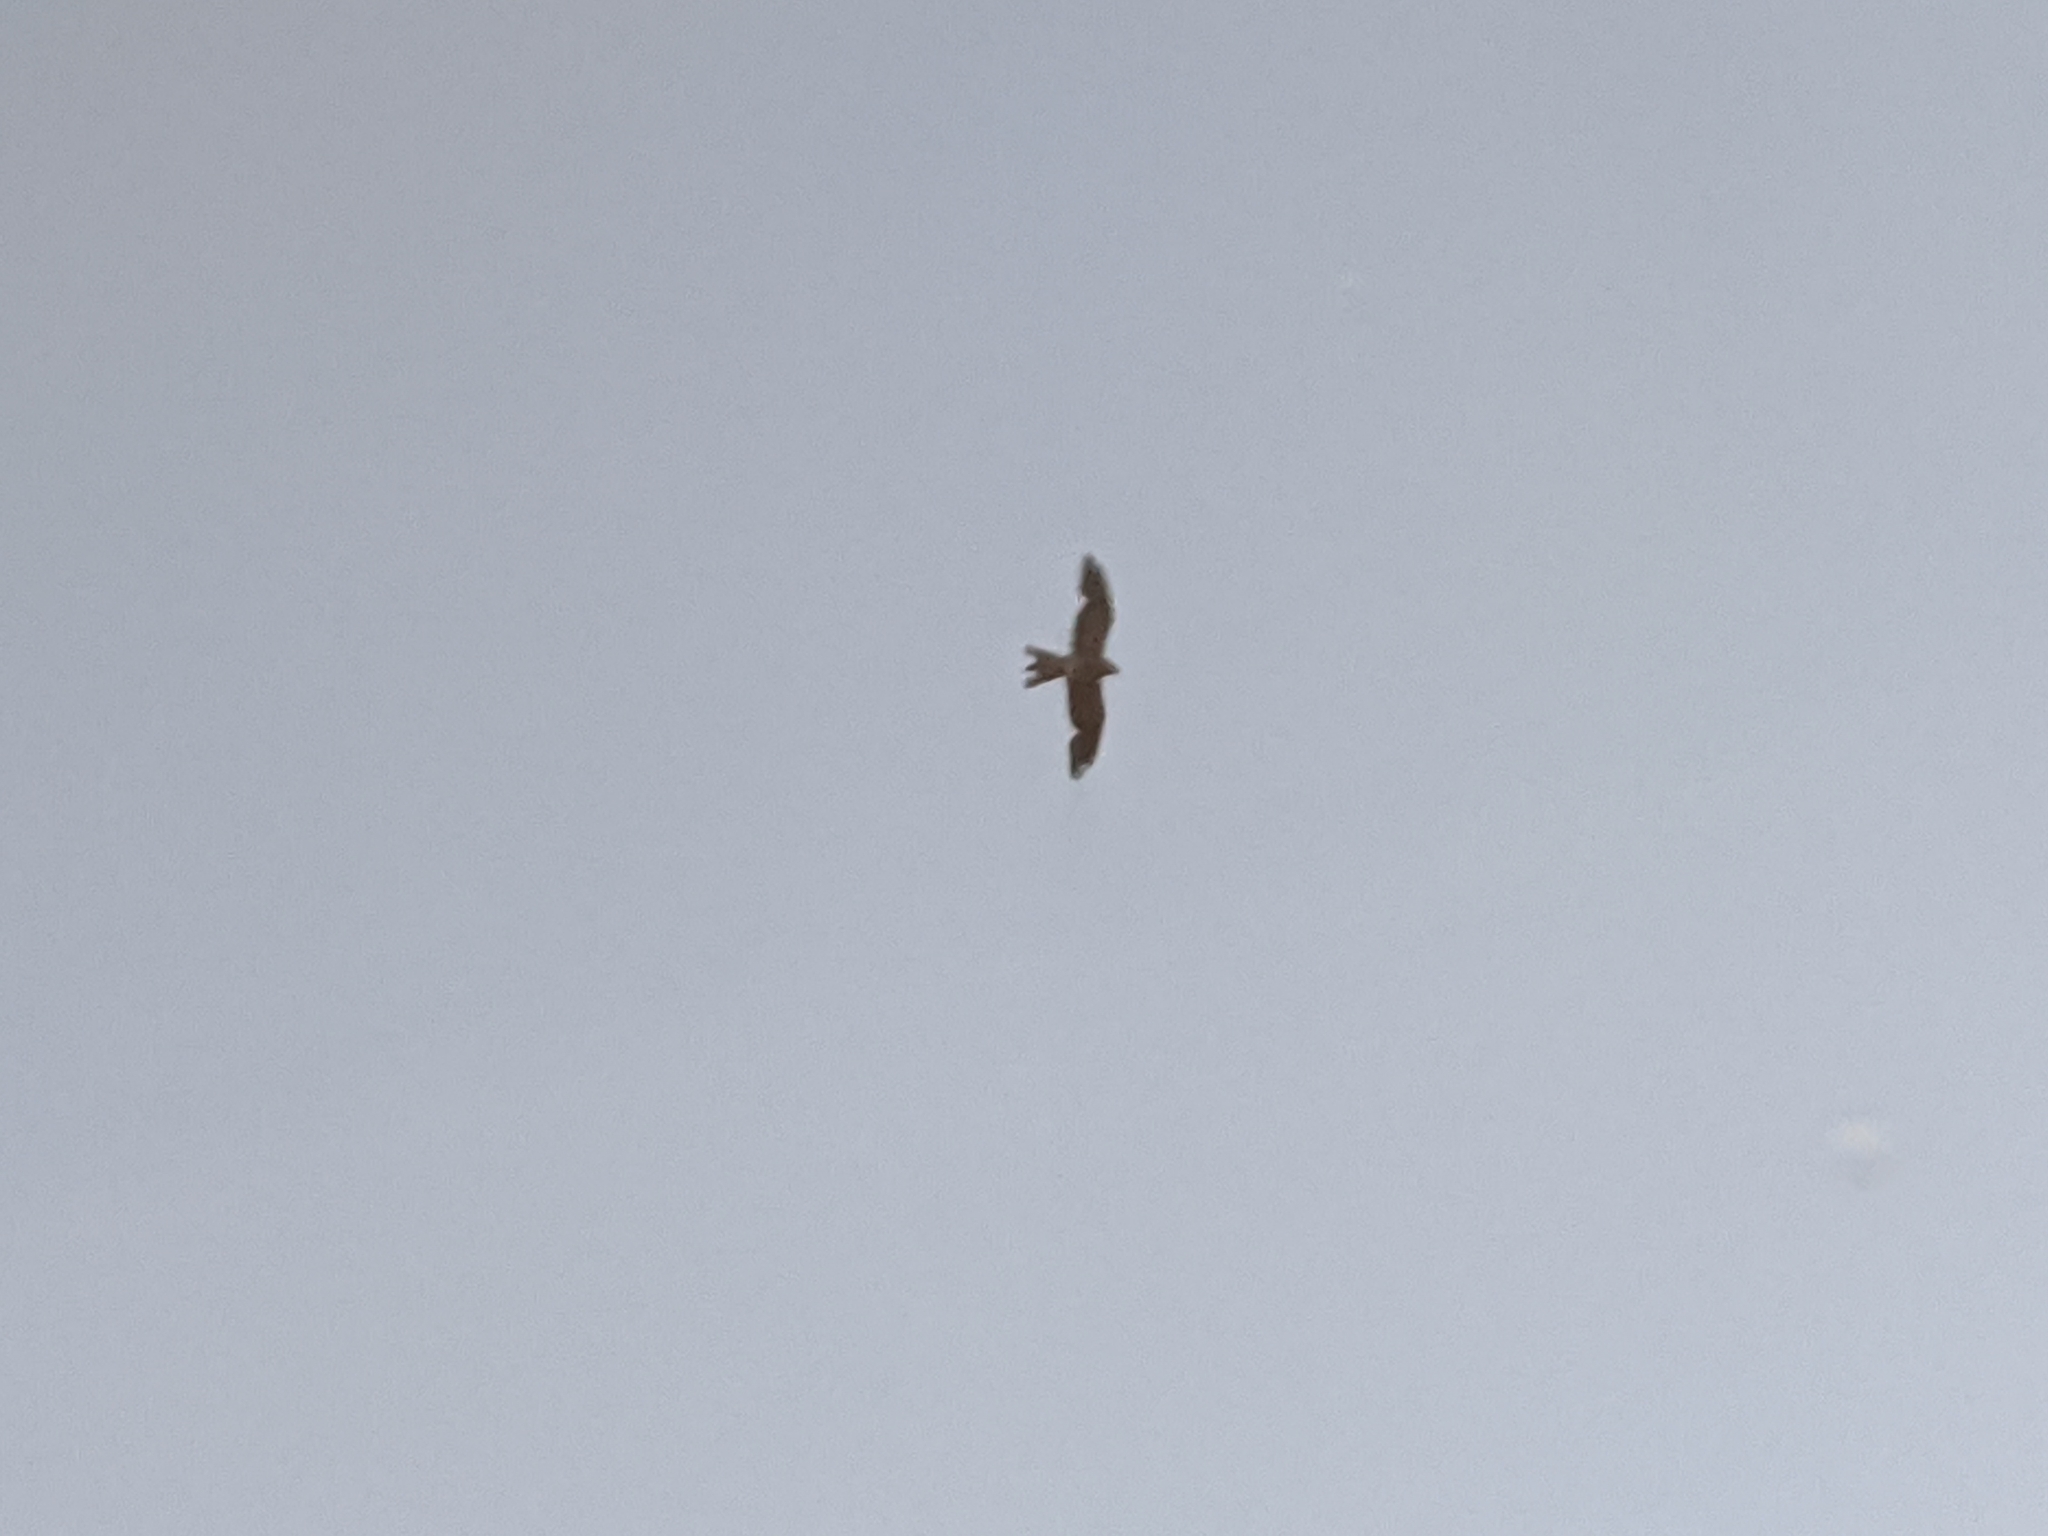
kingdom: Animalia
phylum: Chordata
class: Aves
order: Accipitriformes
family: Accipitridae
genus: Ictinia
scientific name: Ictinia mississippiensis
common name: Mississippi kite
